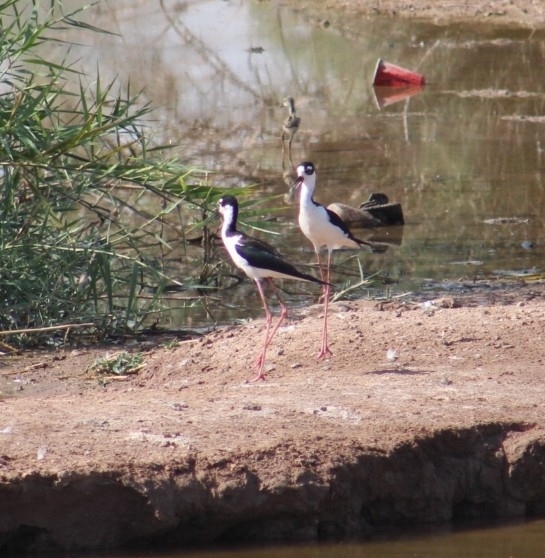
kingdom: Animalia
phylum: Chordata
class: Aves
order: Charadriiformes
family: Recurvirostridae
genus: Himantopus
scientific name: Himantopus mexicanus
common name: Black-necked stilt
